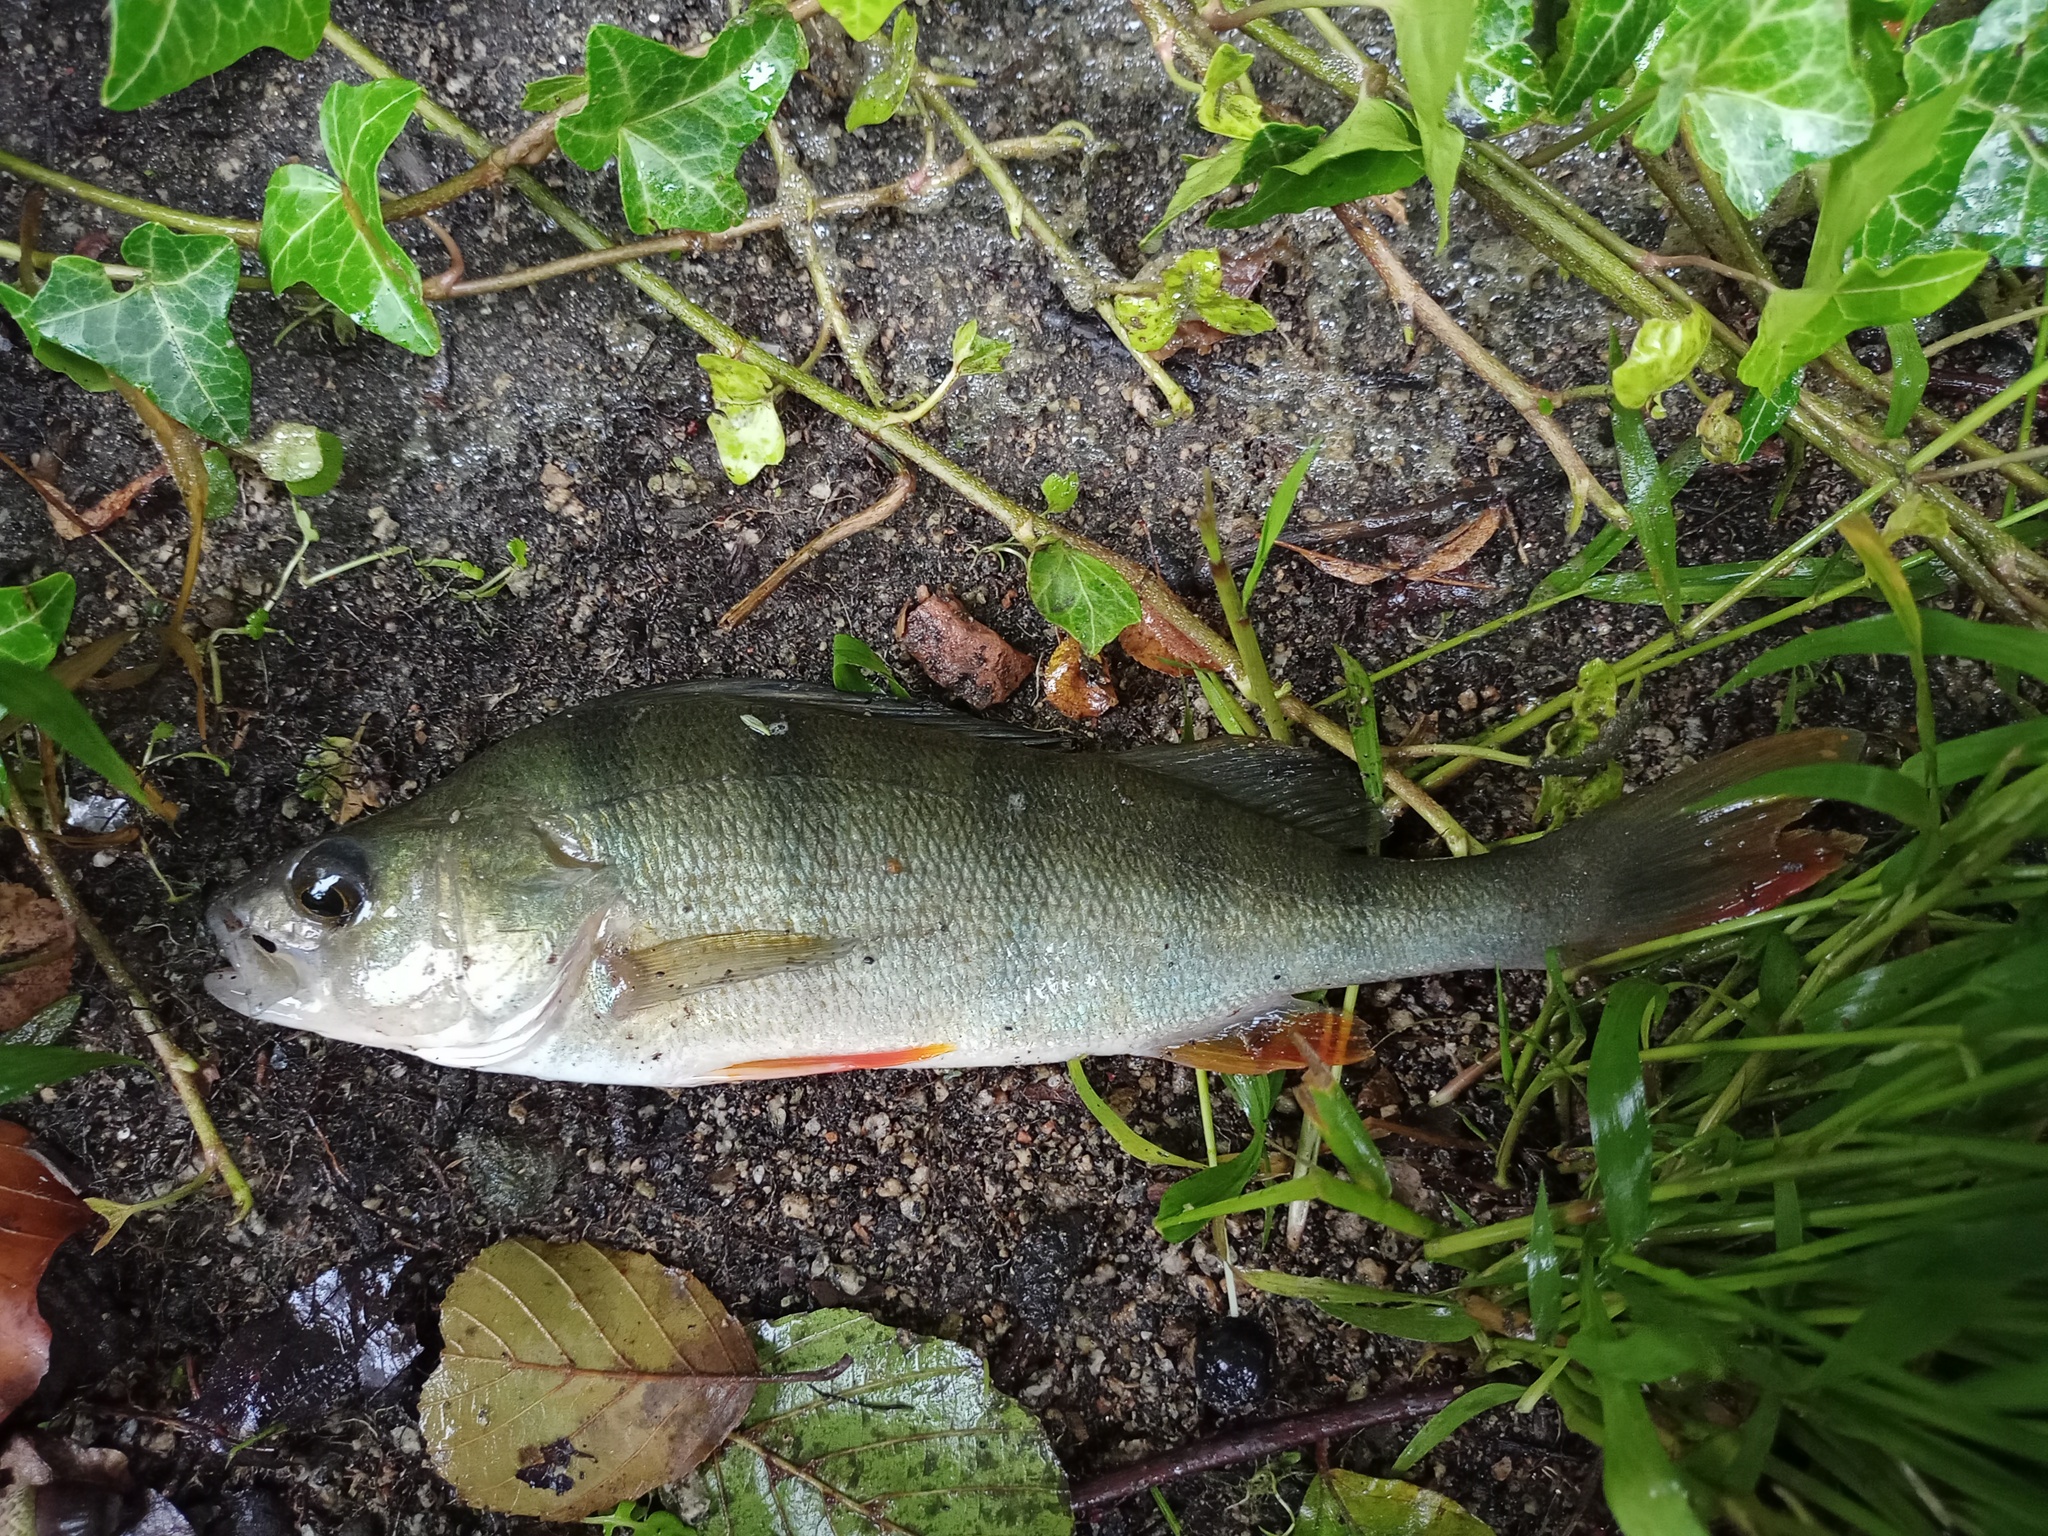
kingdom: Animalia
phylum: Chordata
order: Perciformes
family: Percidae
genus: Perca
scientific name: Perca fluviatilis
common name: Perch
